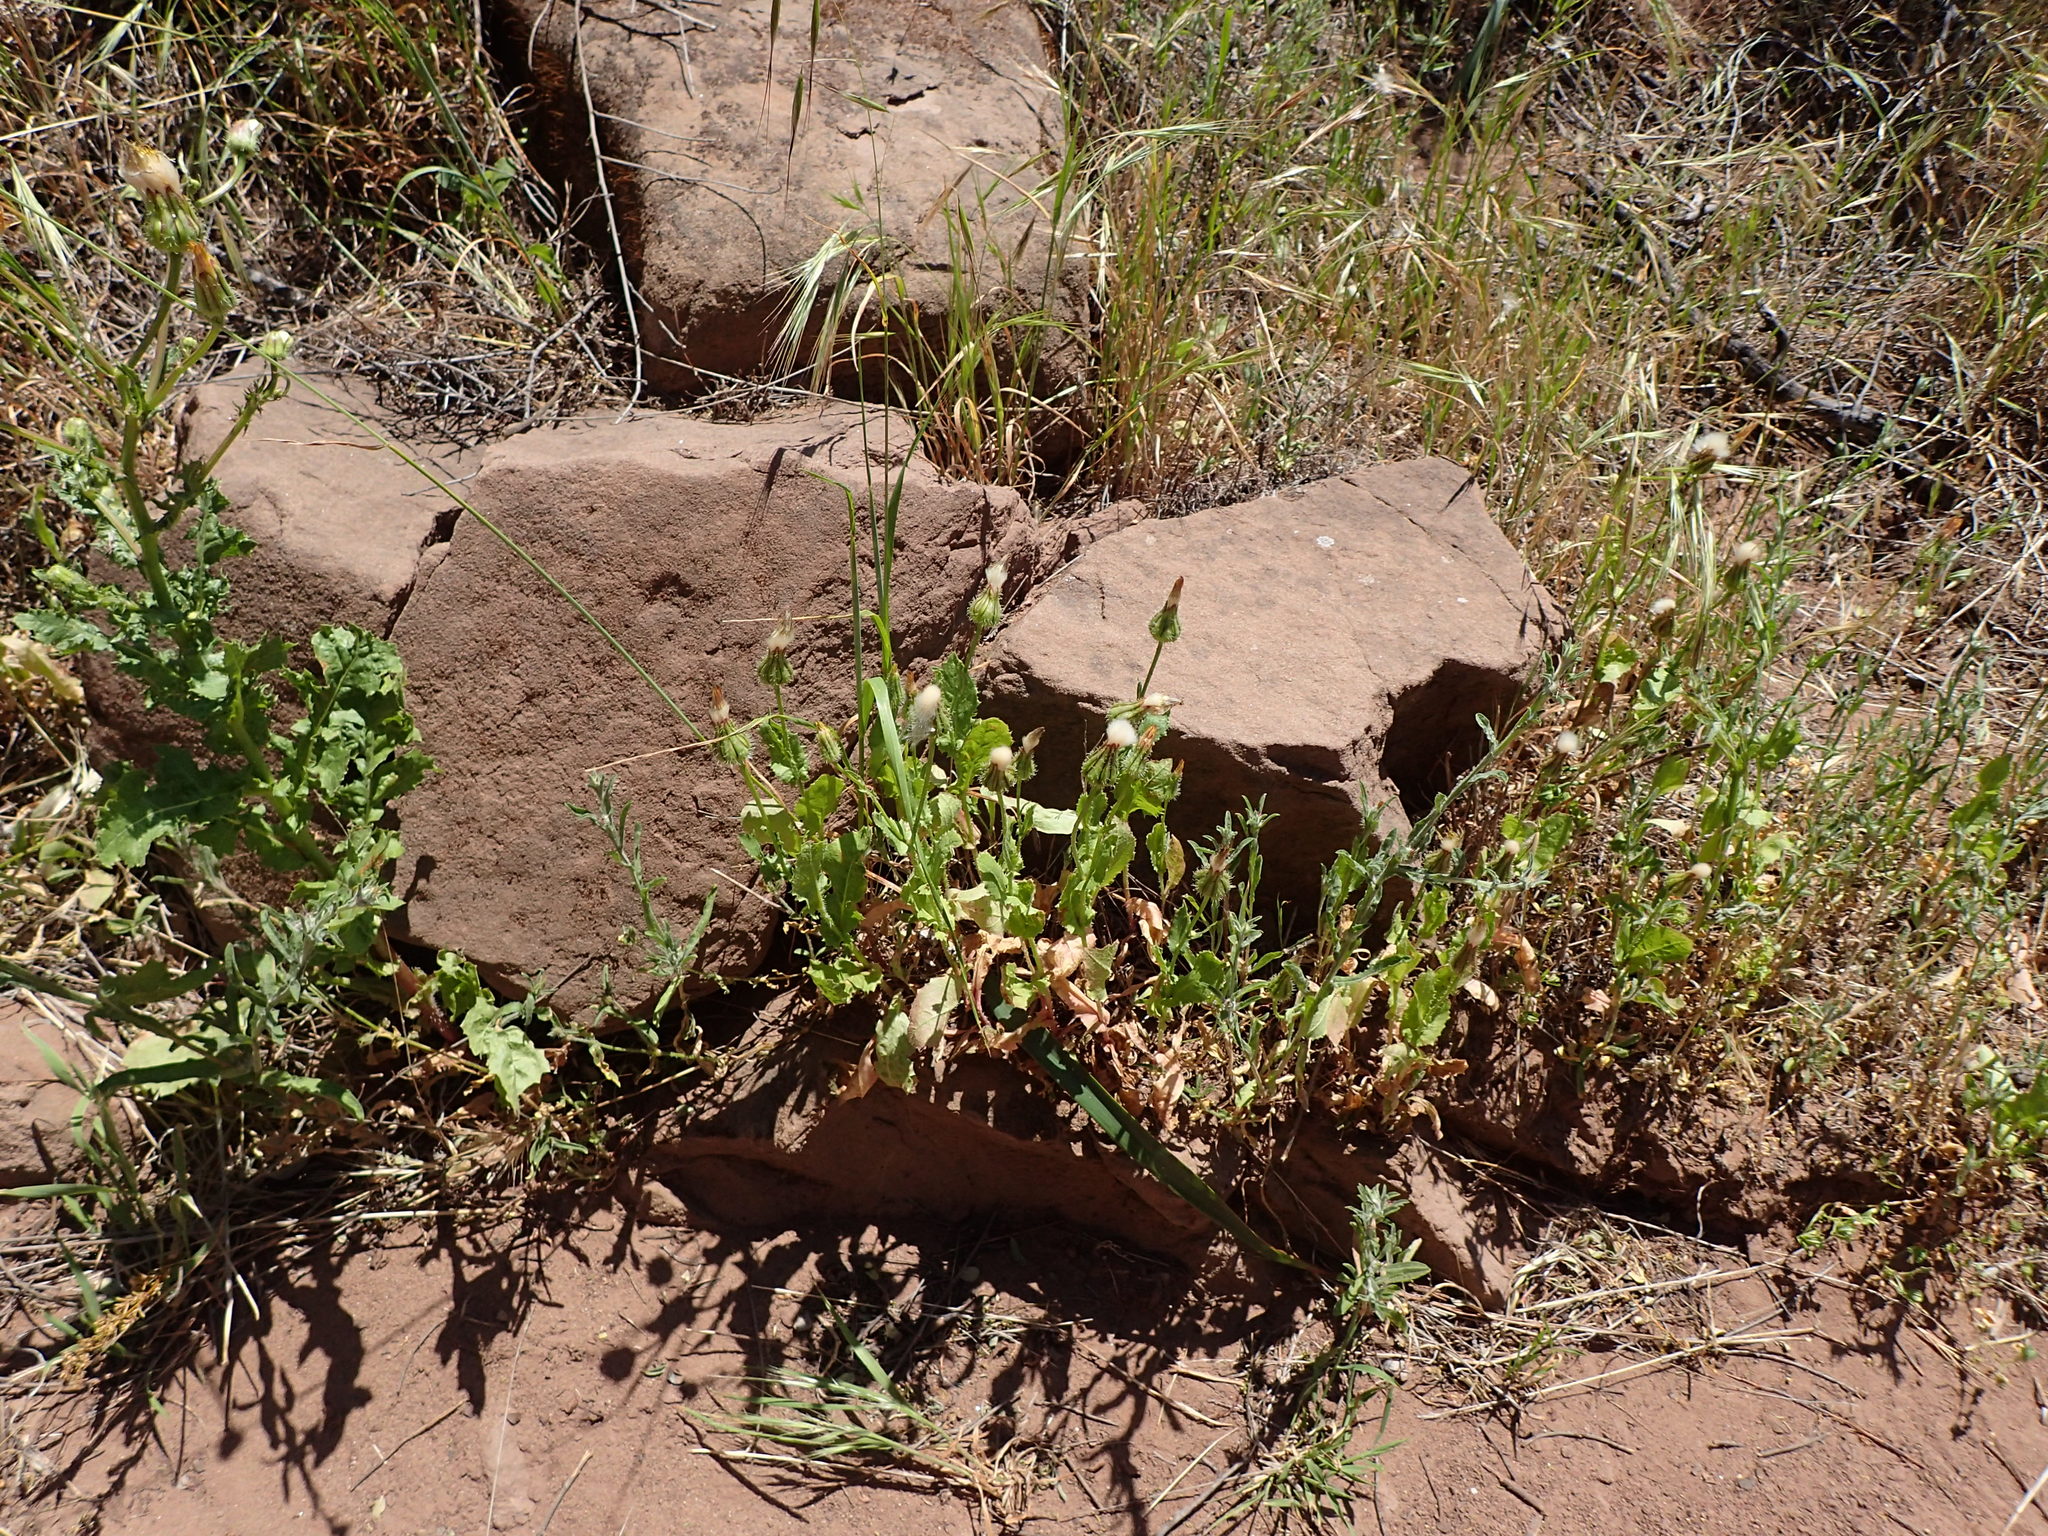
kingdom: Plantae
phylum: Tracheophyta
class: Magnoliopsida
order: Asterales
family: Asteraceae
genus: Urospermum
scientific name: Urospermum picroides
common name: False hawkbit
